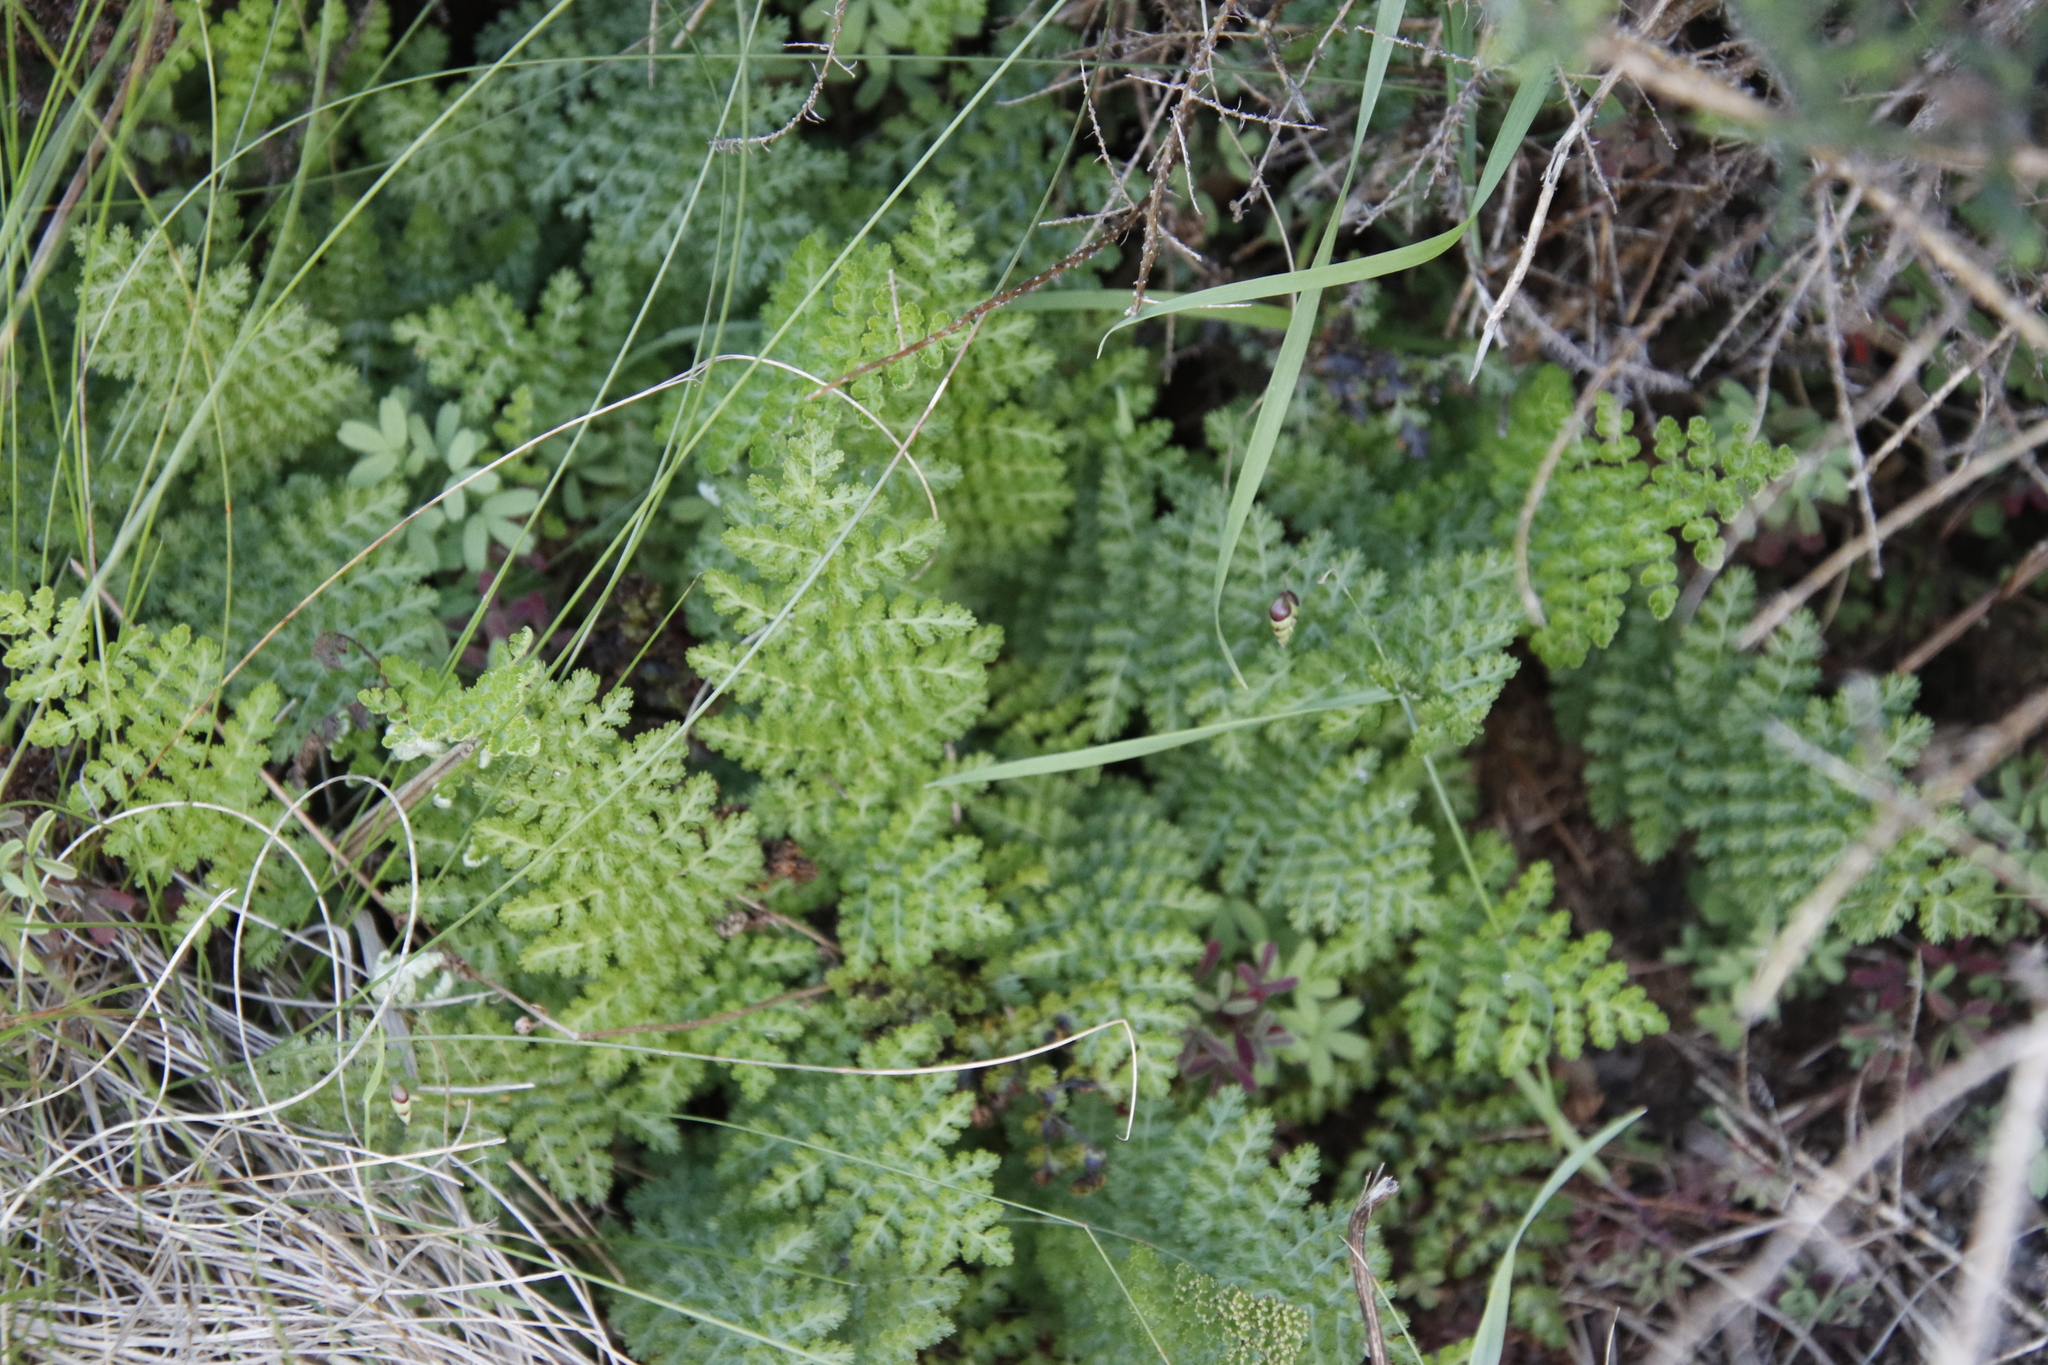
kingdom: Plantae
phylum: Tracheophyta
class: Polypodiopsida
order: Schizaeales
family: Anemiaceae
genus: Anemia
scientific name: Anemia caffrorum
